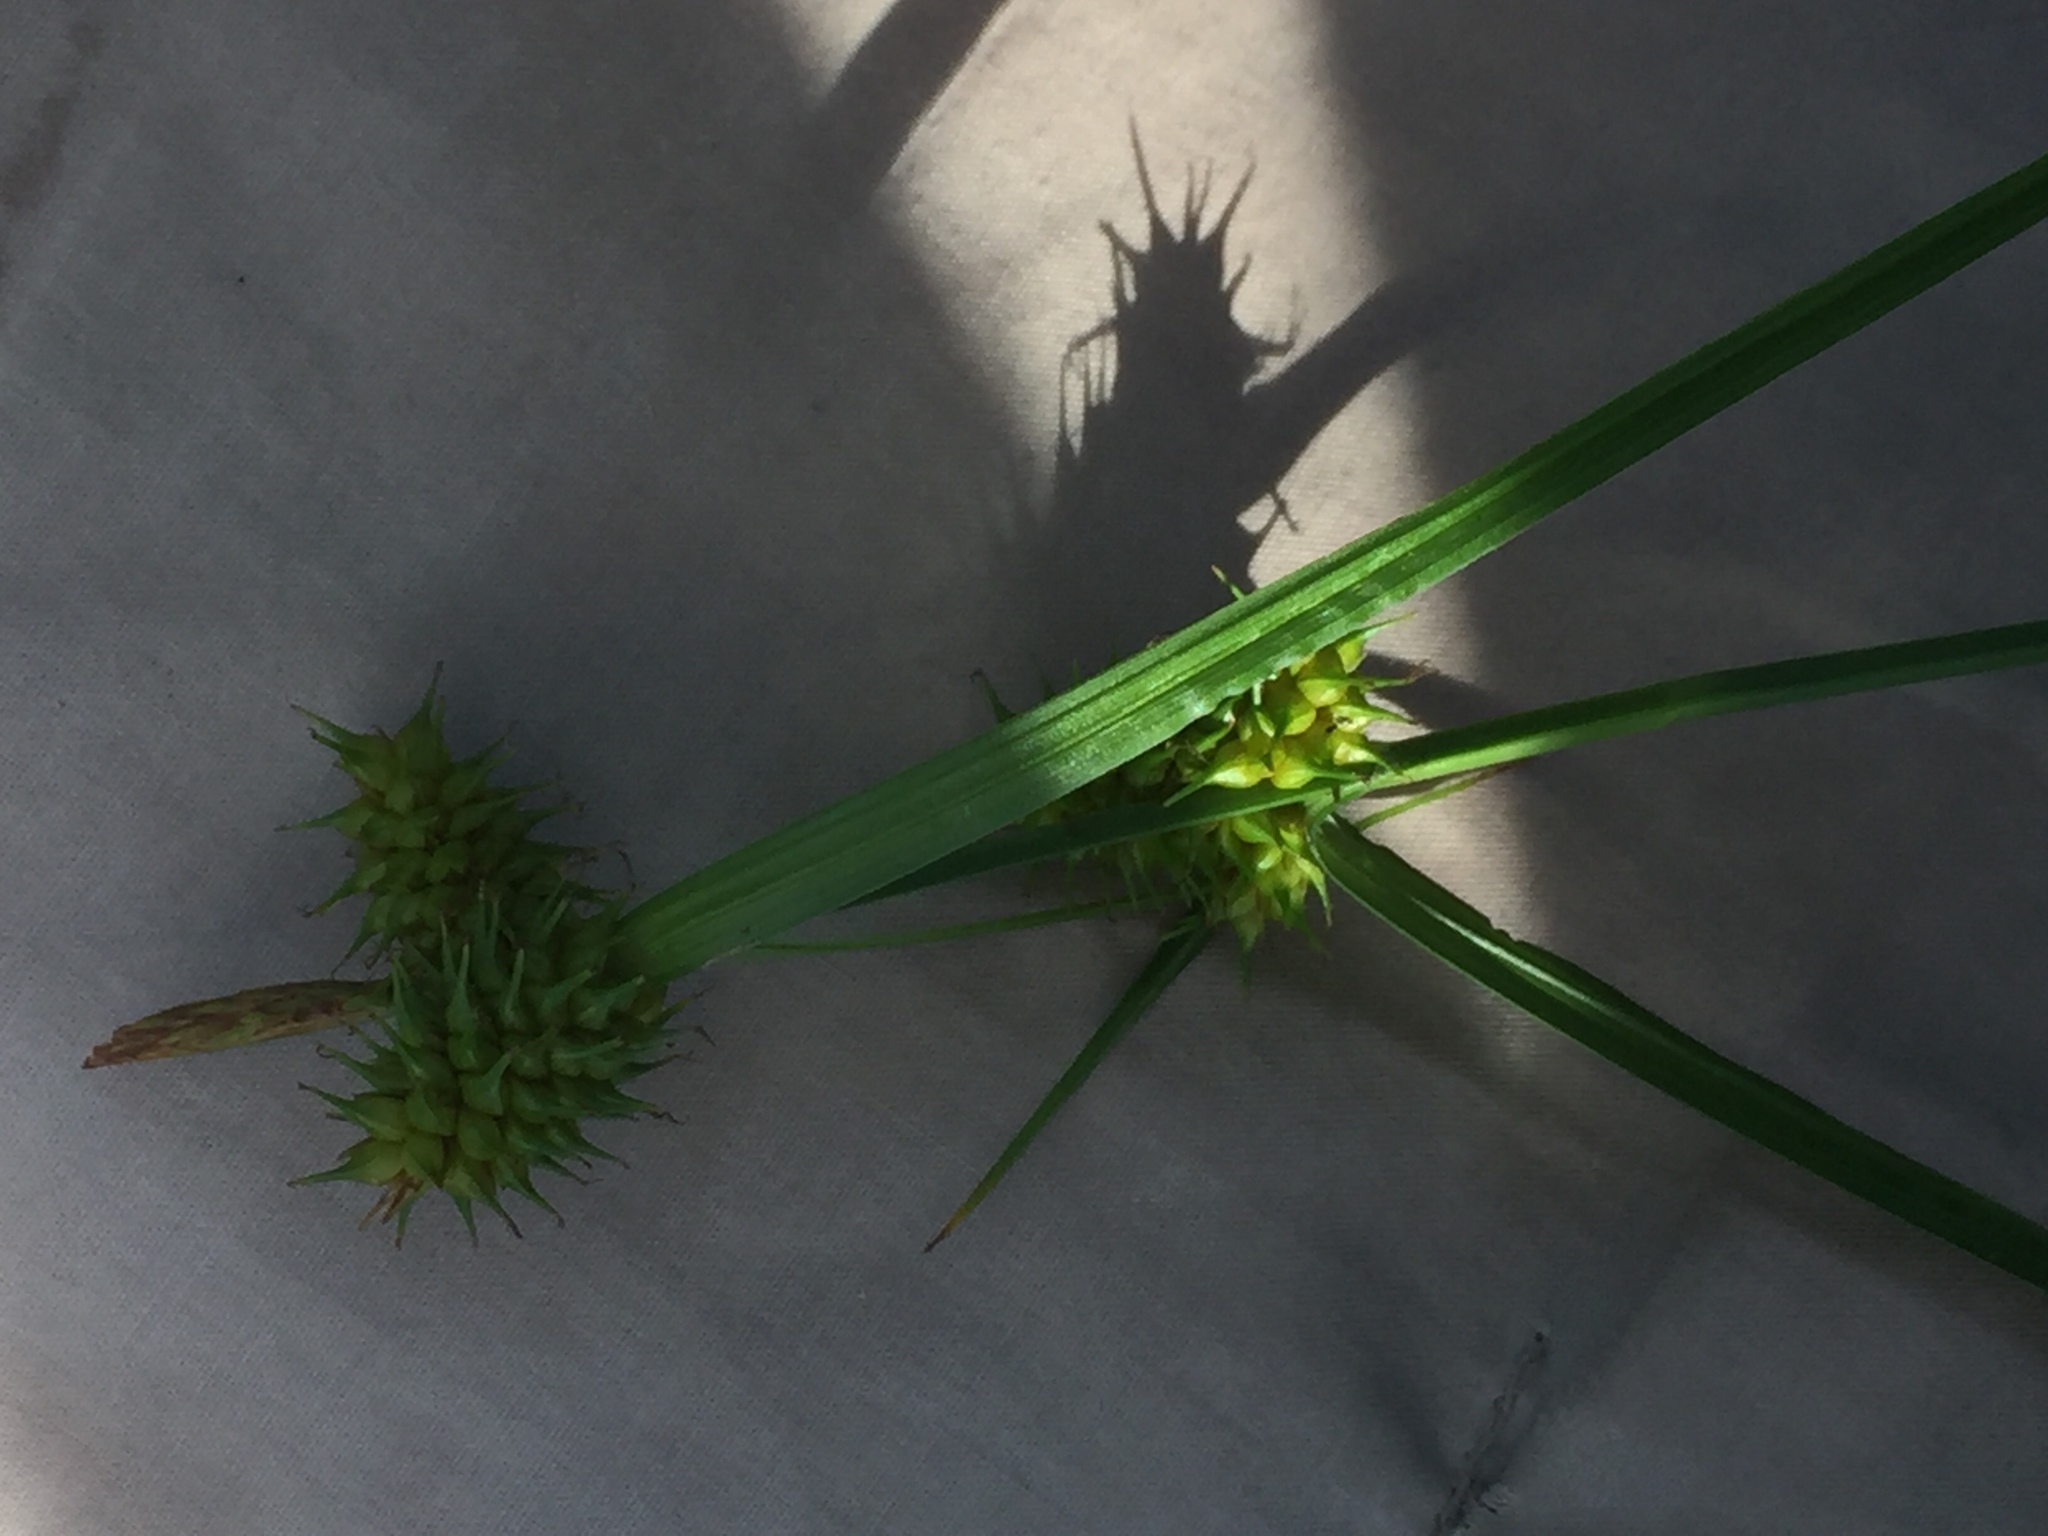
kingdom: Plantae
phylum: Tracheophyta
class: Liliopsida
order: Poales
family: Cyperaceae
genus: Carex
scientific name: Carex flava
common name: Large yellow-sedge
